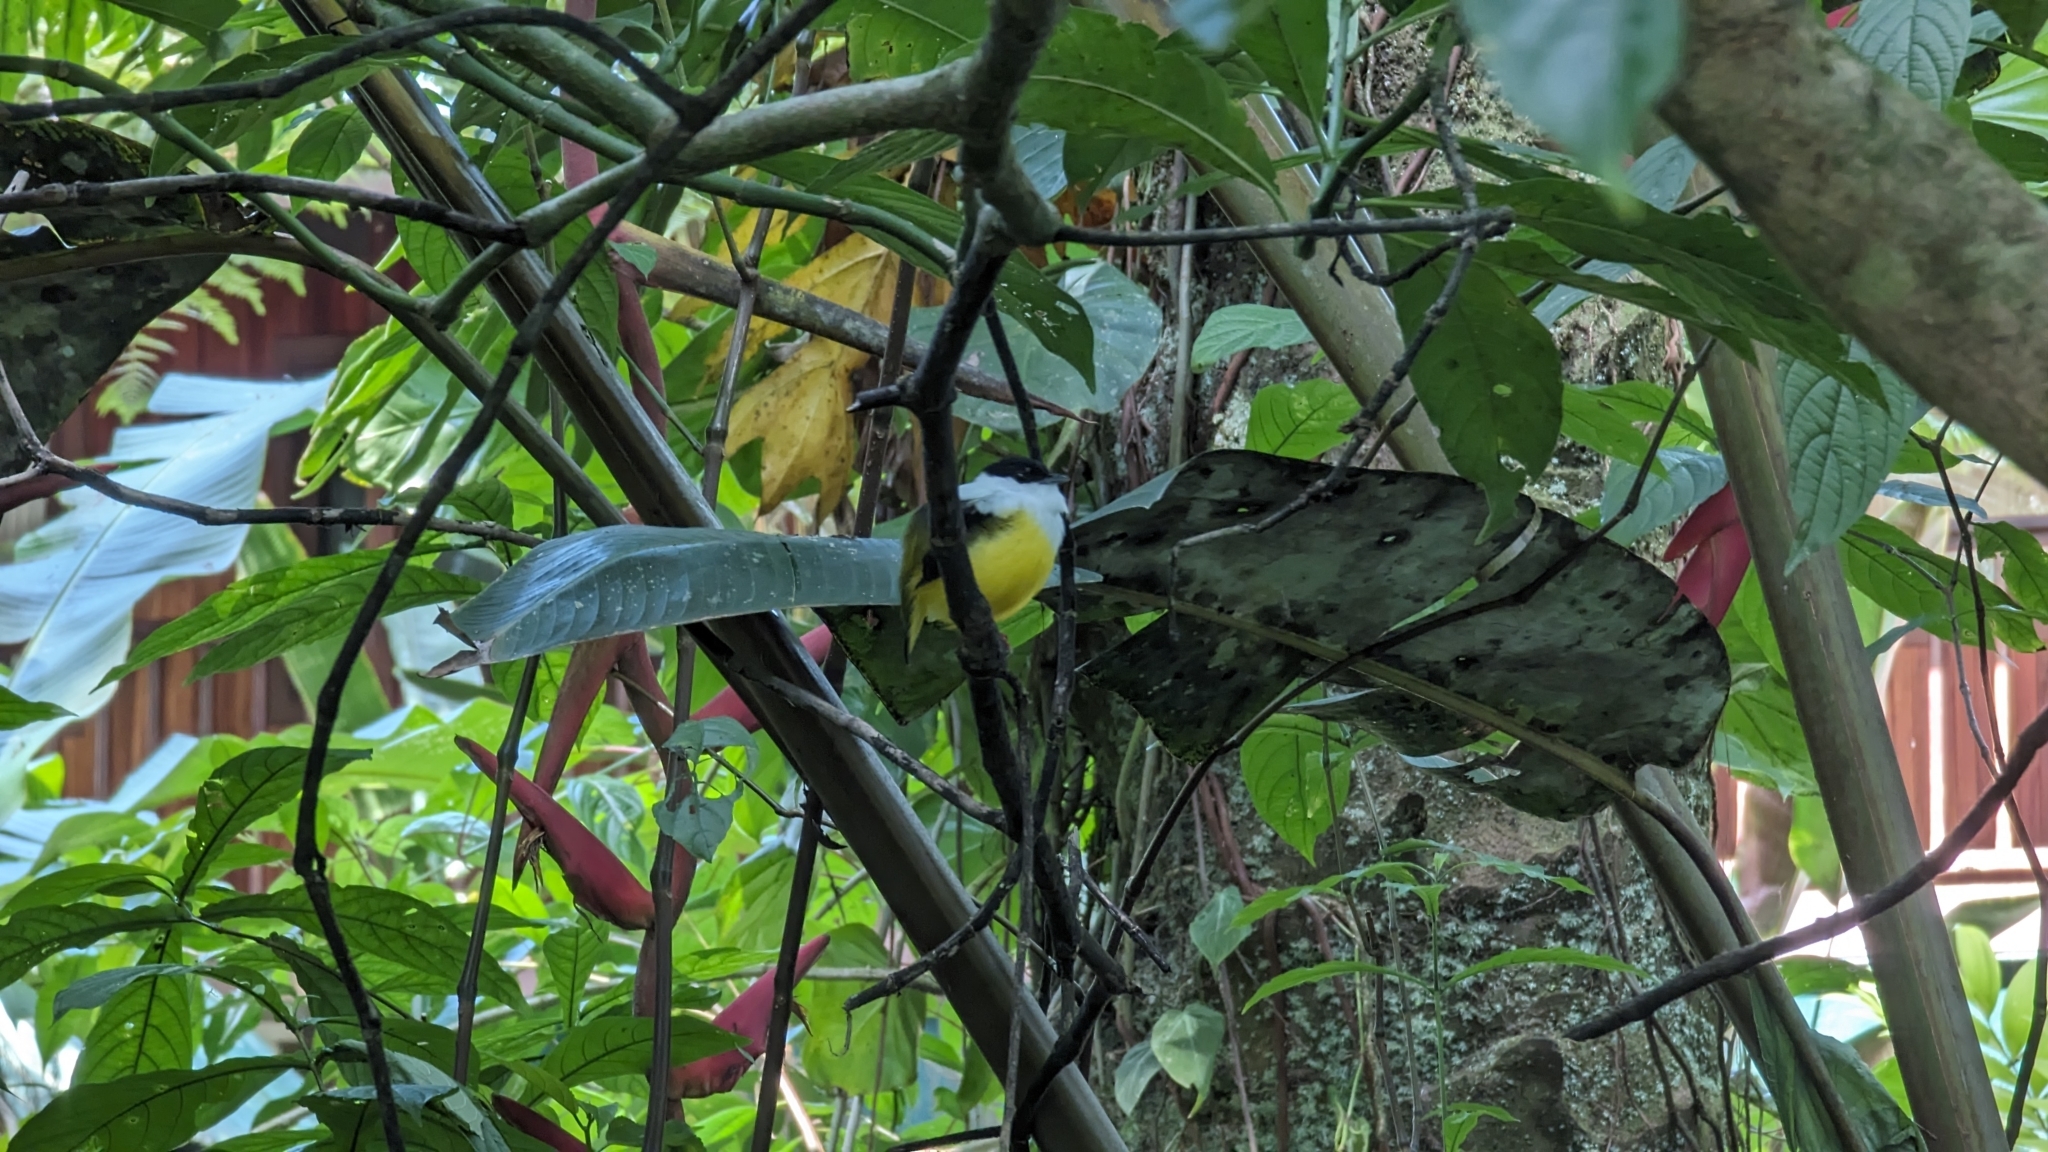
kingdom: Animalia
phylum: Chordata
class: Aves
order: Passeriformes
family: Pipridae
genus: Manacus
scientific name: Manacus candei
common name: White-collared manakin
